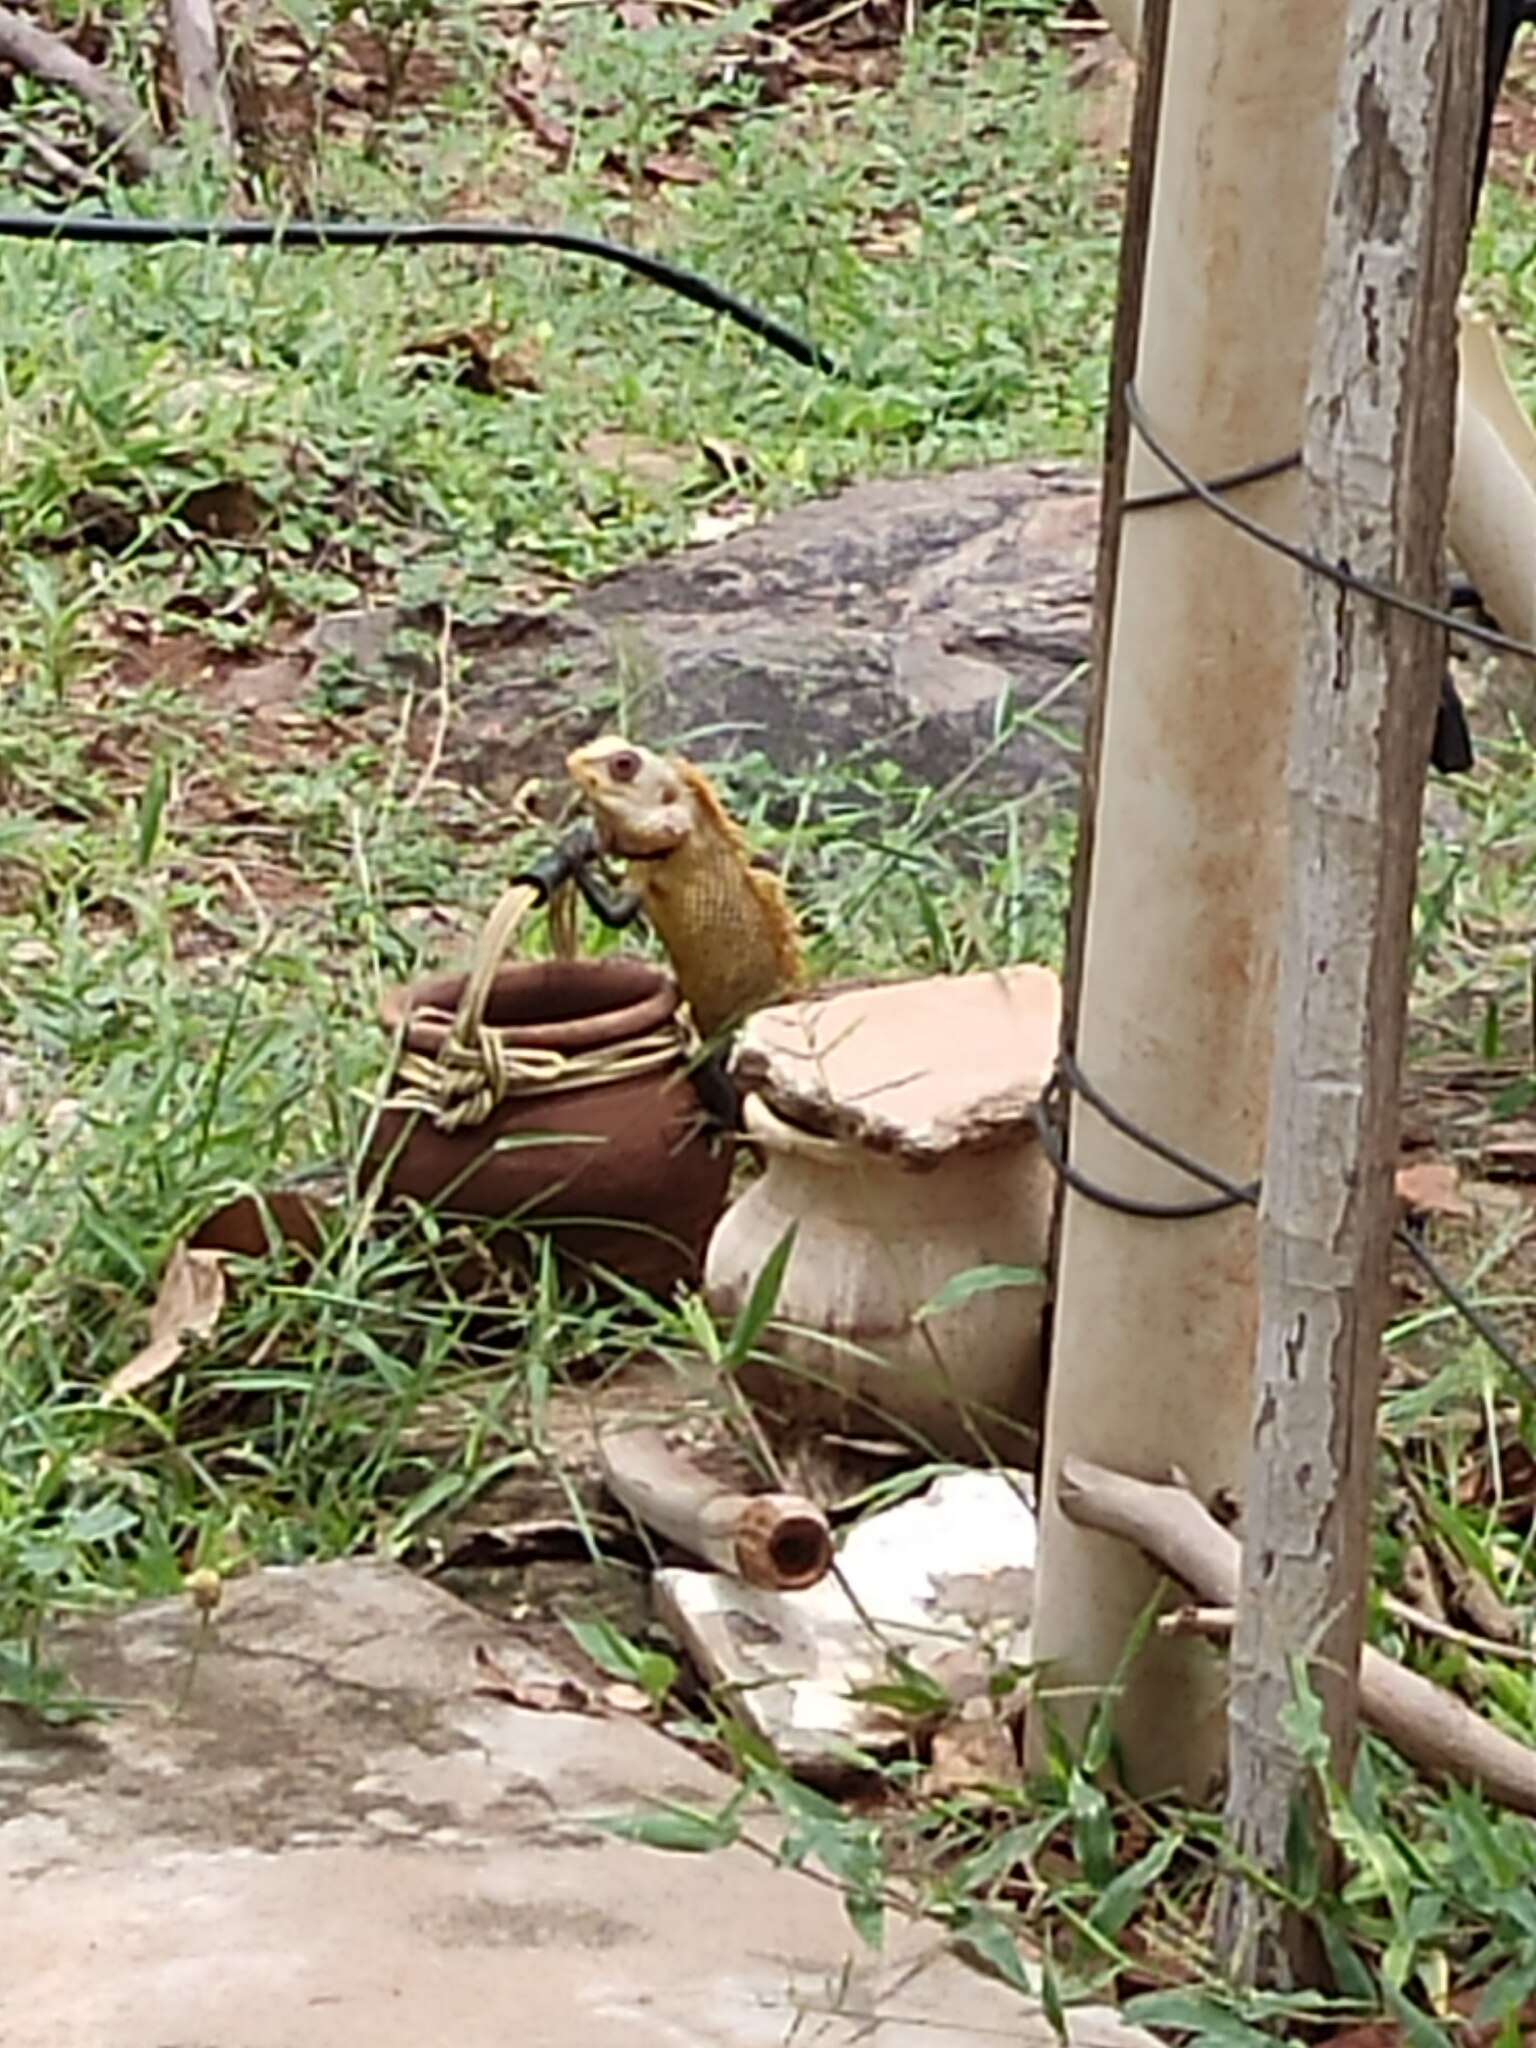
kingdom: Animalia
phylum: Chordata
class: Squamata
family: Agamidae
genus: Calotes
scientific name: Calotes versicolor
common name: Oriental garden lizard
